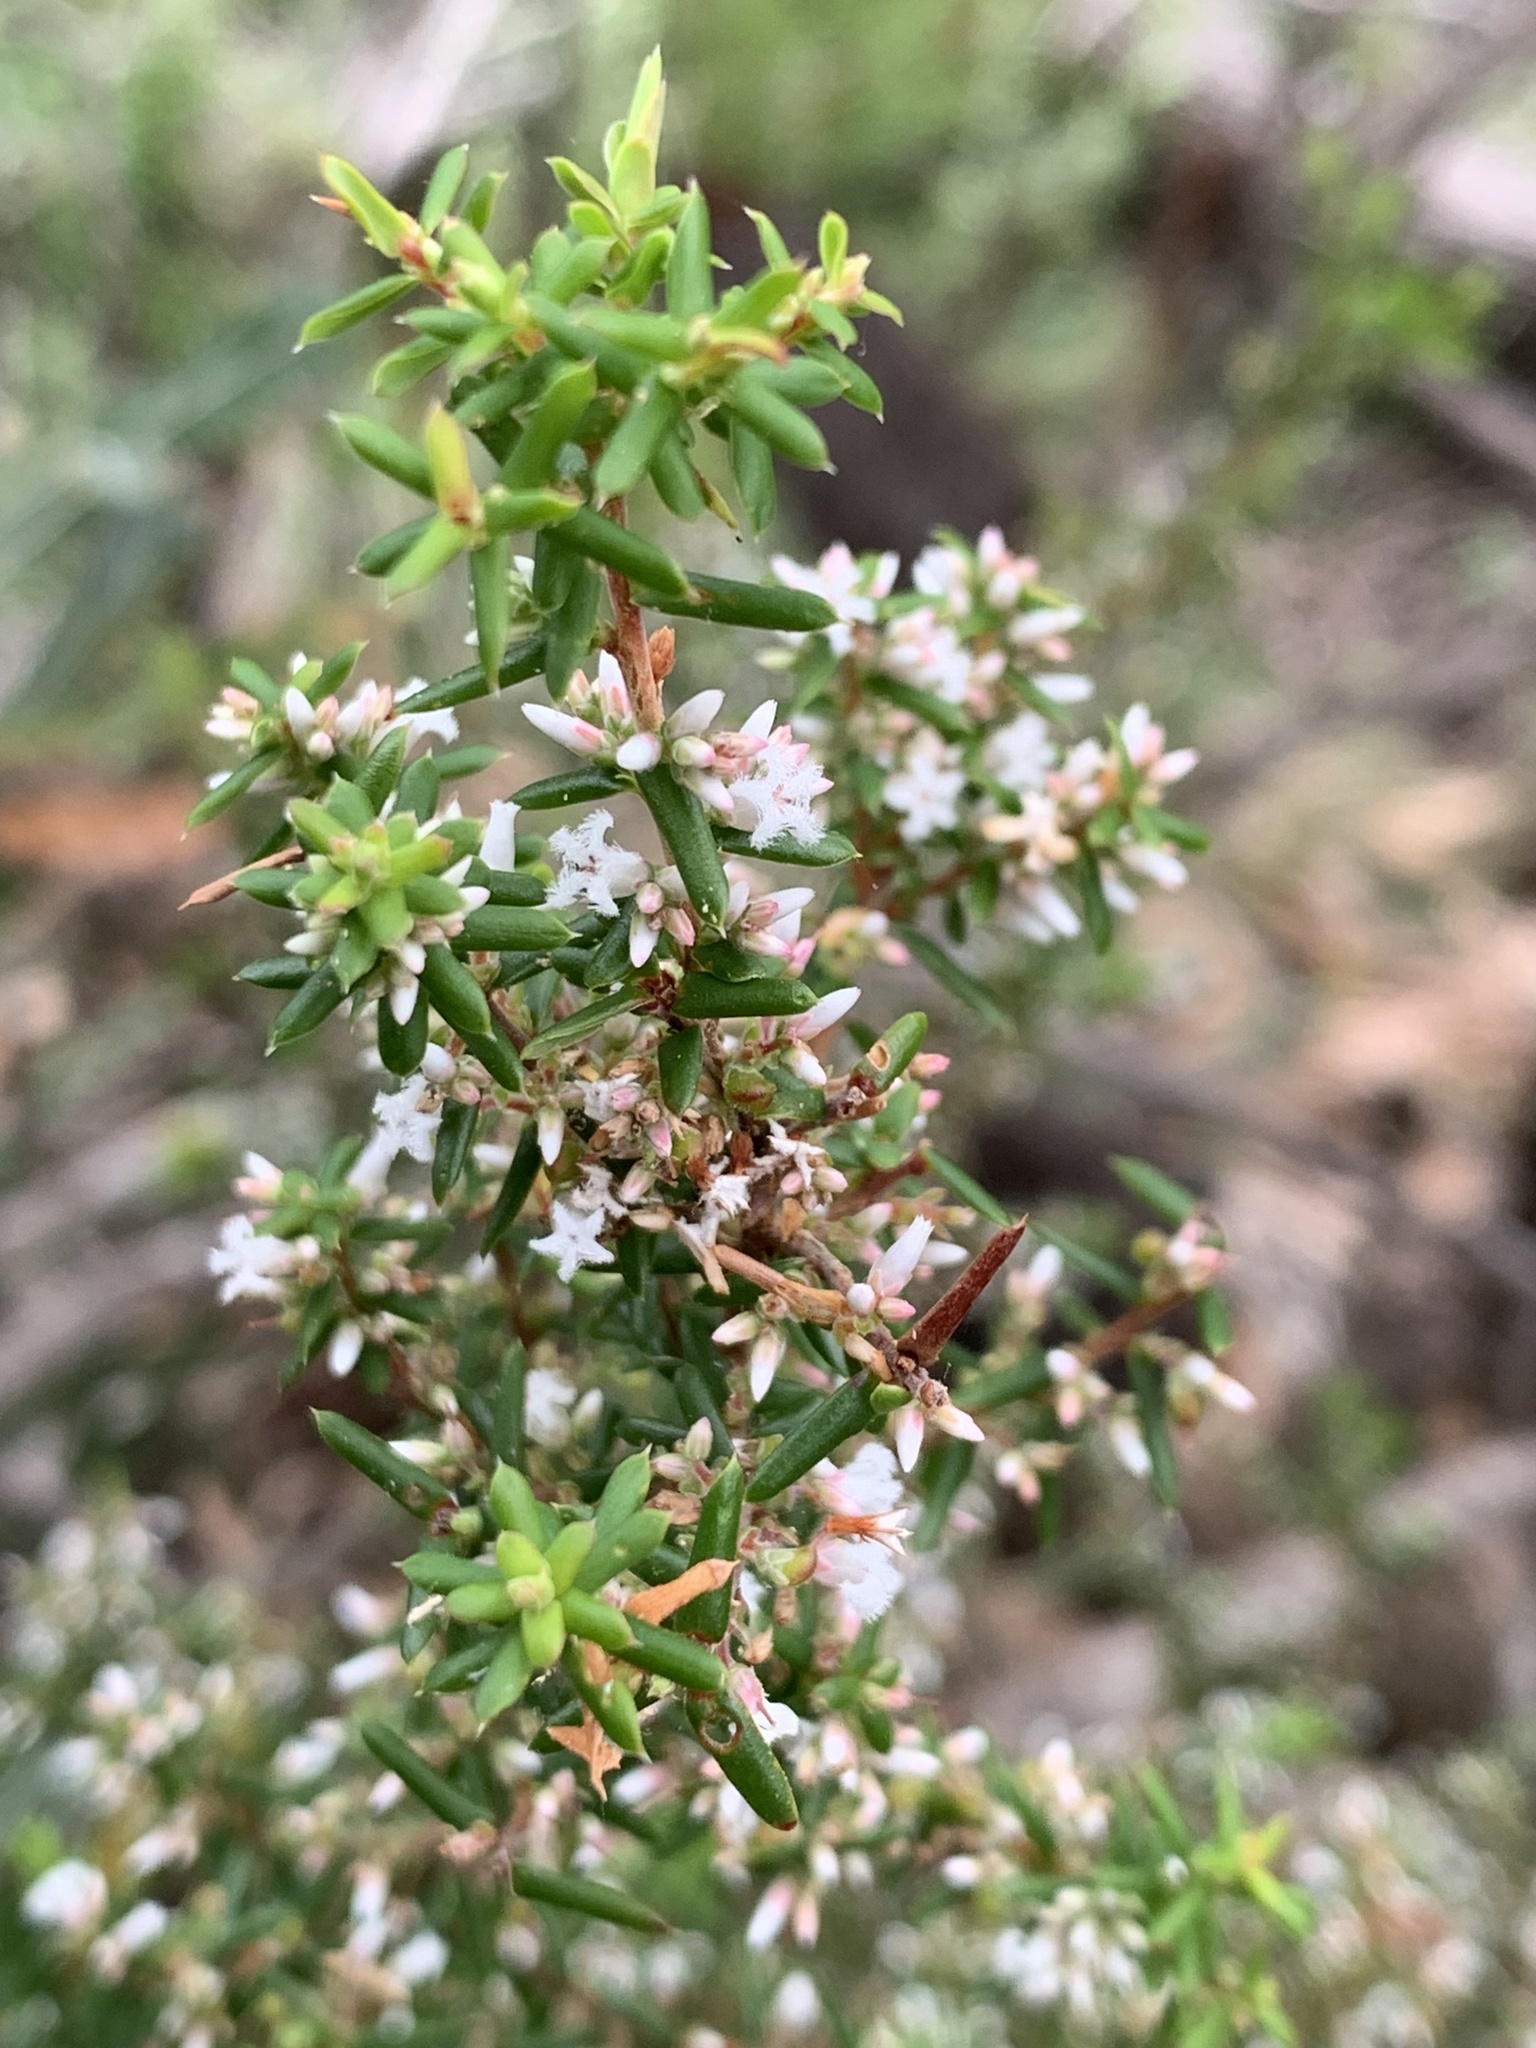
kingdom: Plantae
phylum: Tracheophyta
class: Magnoliopsida
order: Ericales
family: Ericaceae
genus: Styphelia
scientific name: Styphelia ericoides
